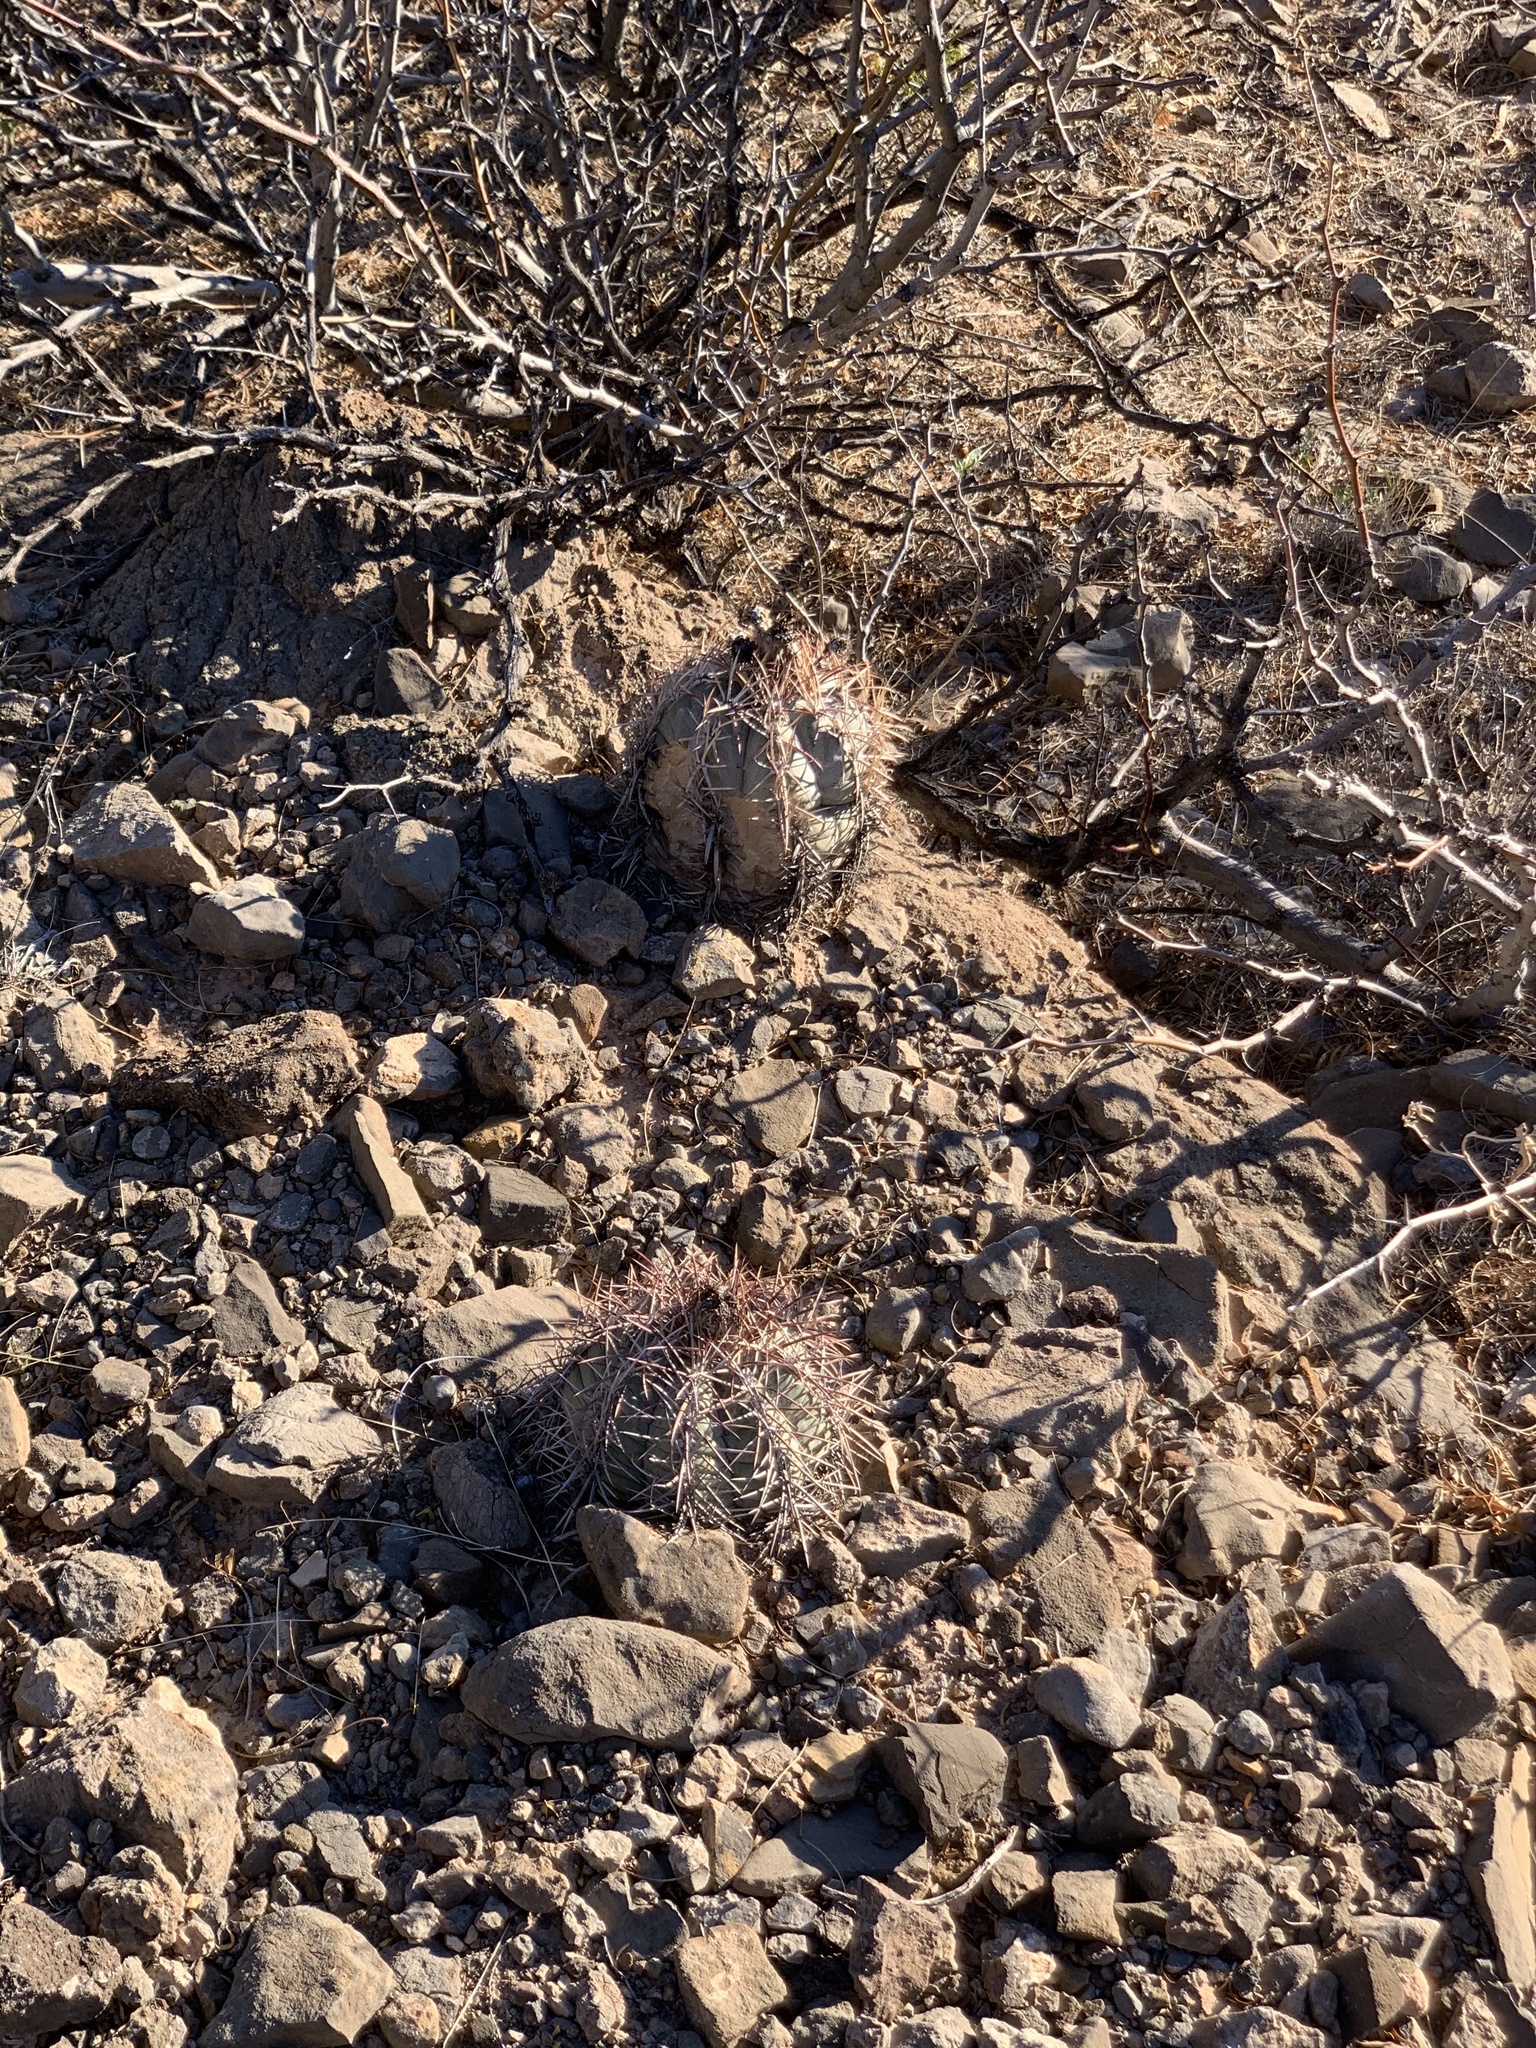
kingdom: Plantae
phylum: Tracheophyta
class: Magnoliopsida
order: Caryophyllales
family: Cactaceae
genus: Echinocactus
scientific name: Echinocactus horizonthalonius
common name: Devilshead
